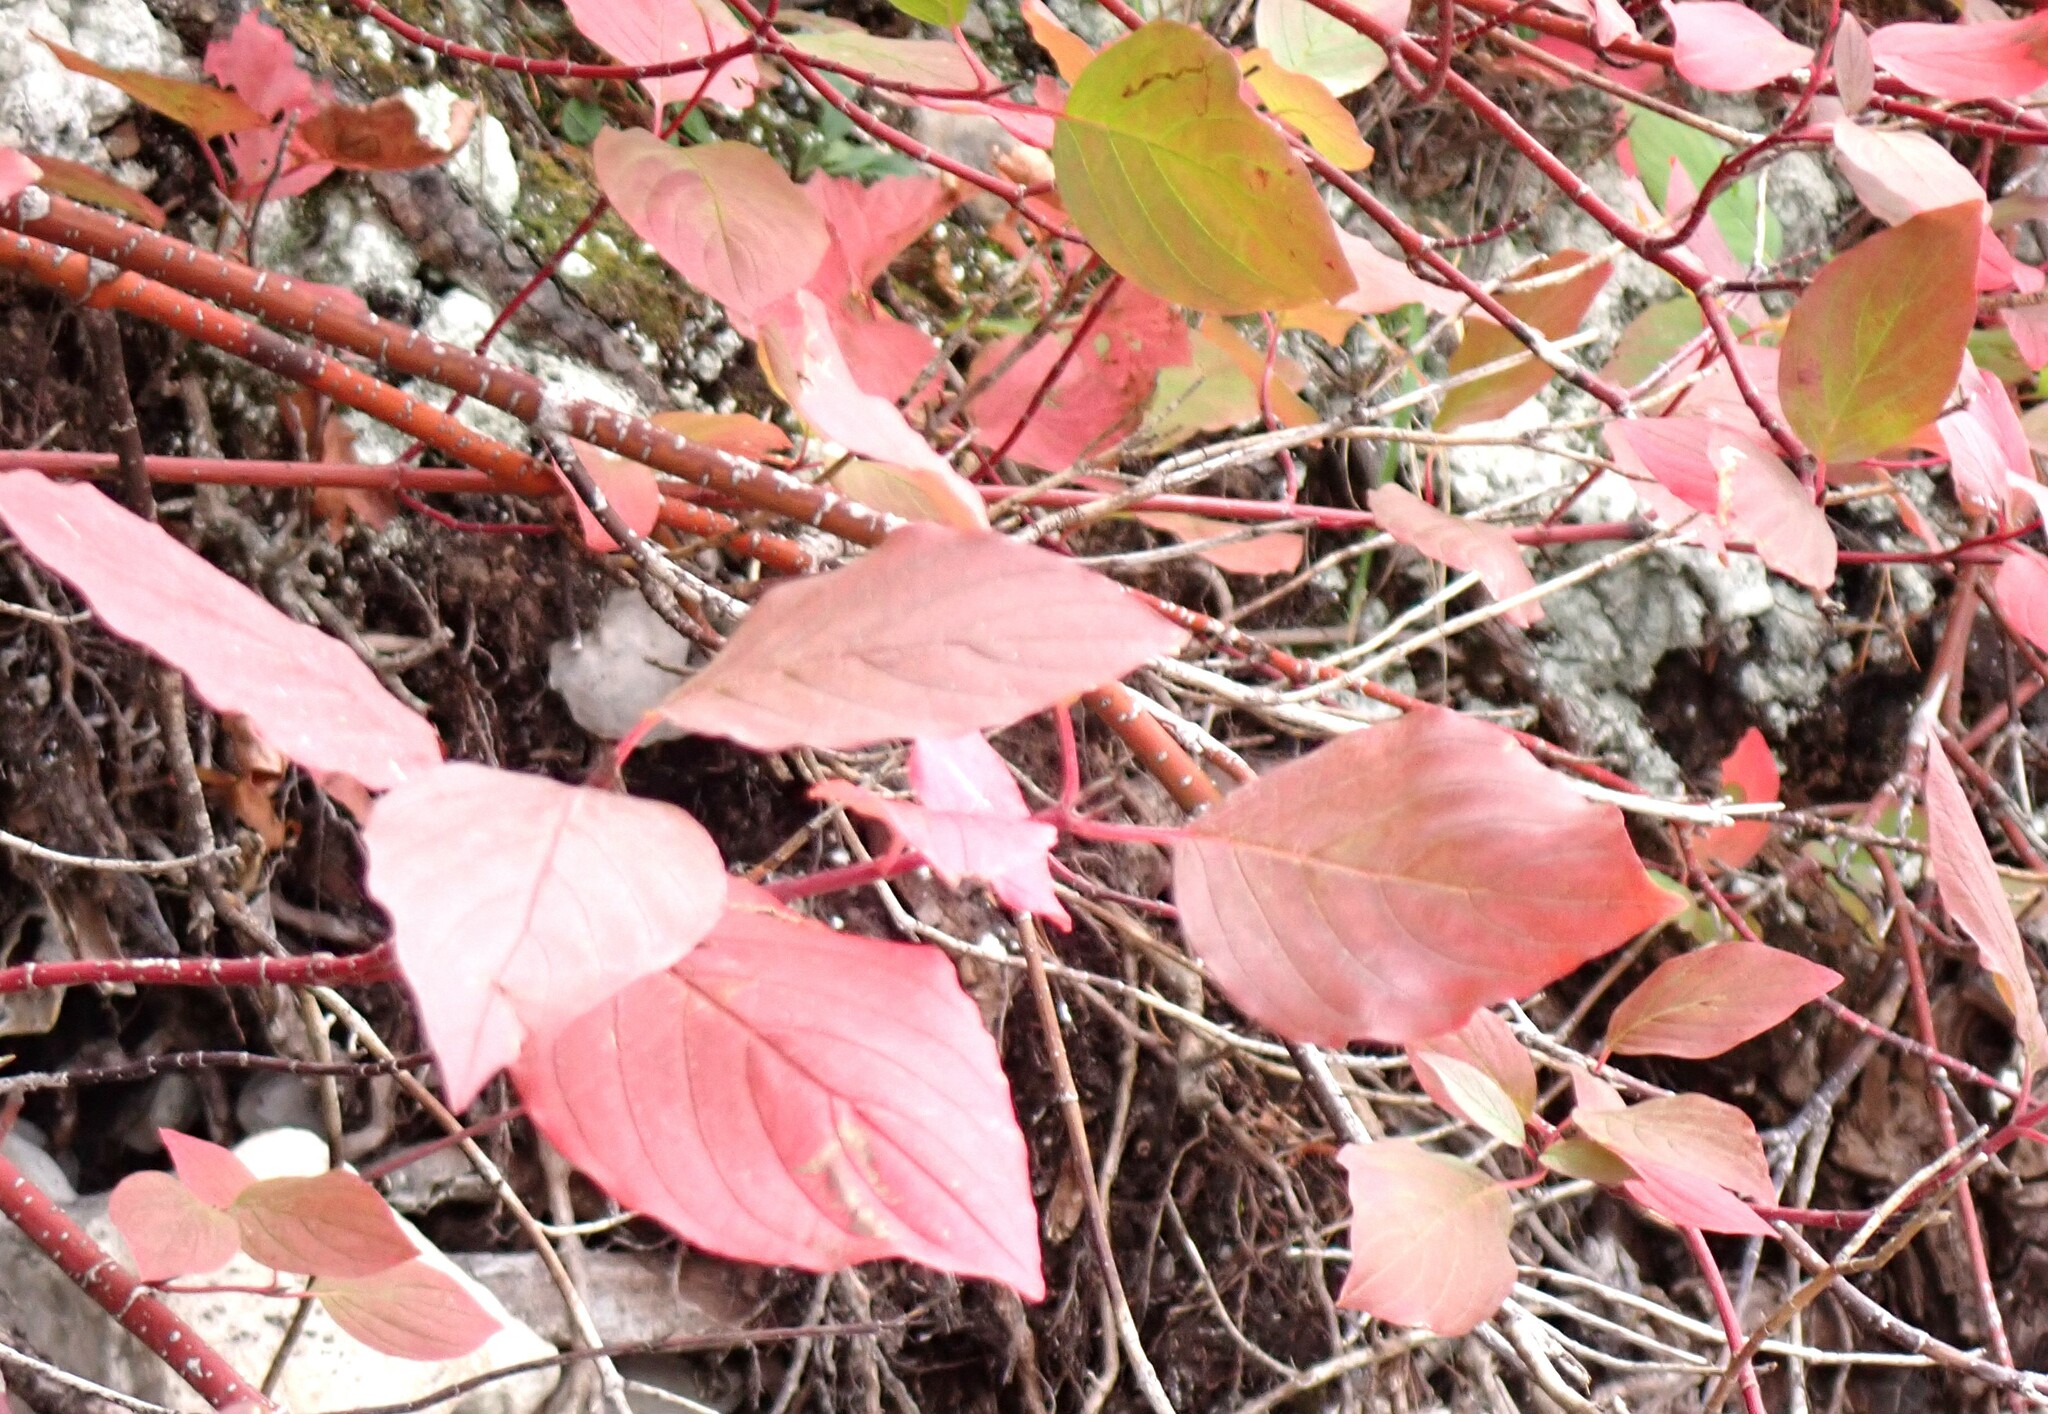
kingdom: Plantae
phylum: Tracheophyta
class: Magnoliopsida
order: Cornales
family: Cornaceae
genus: Cornus
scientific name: Cornus sericea
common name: Red-osier dogwood
